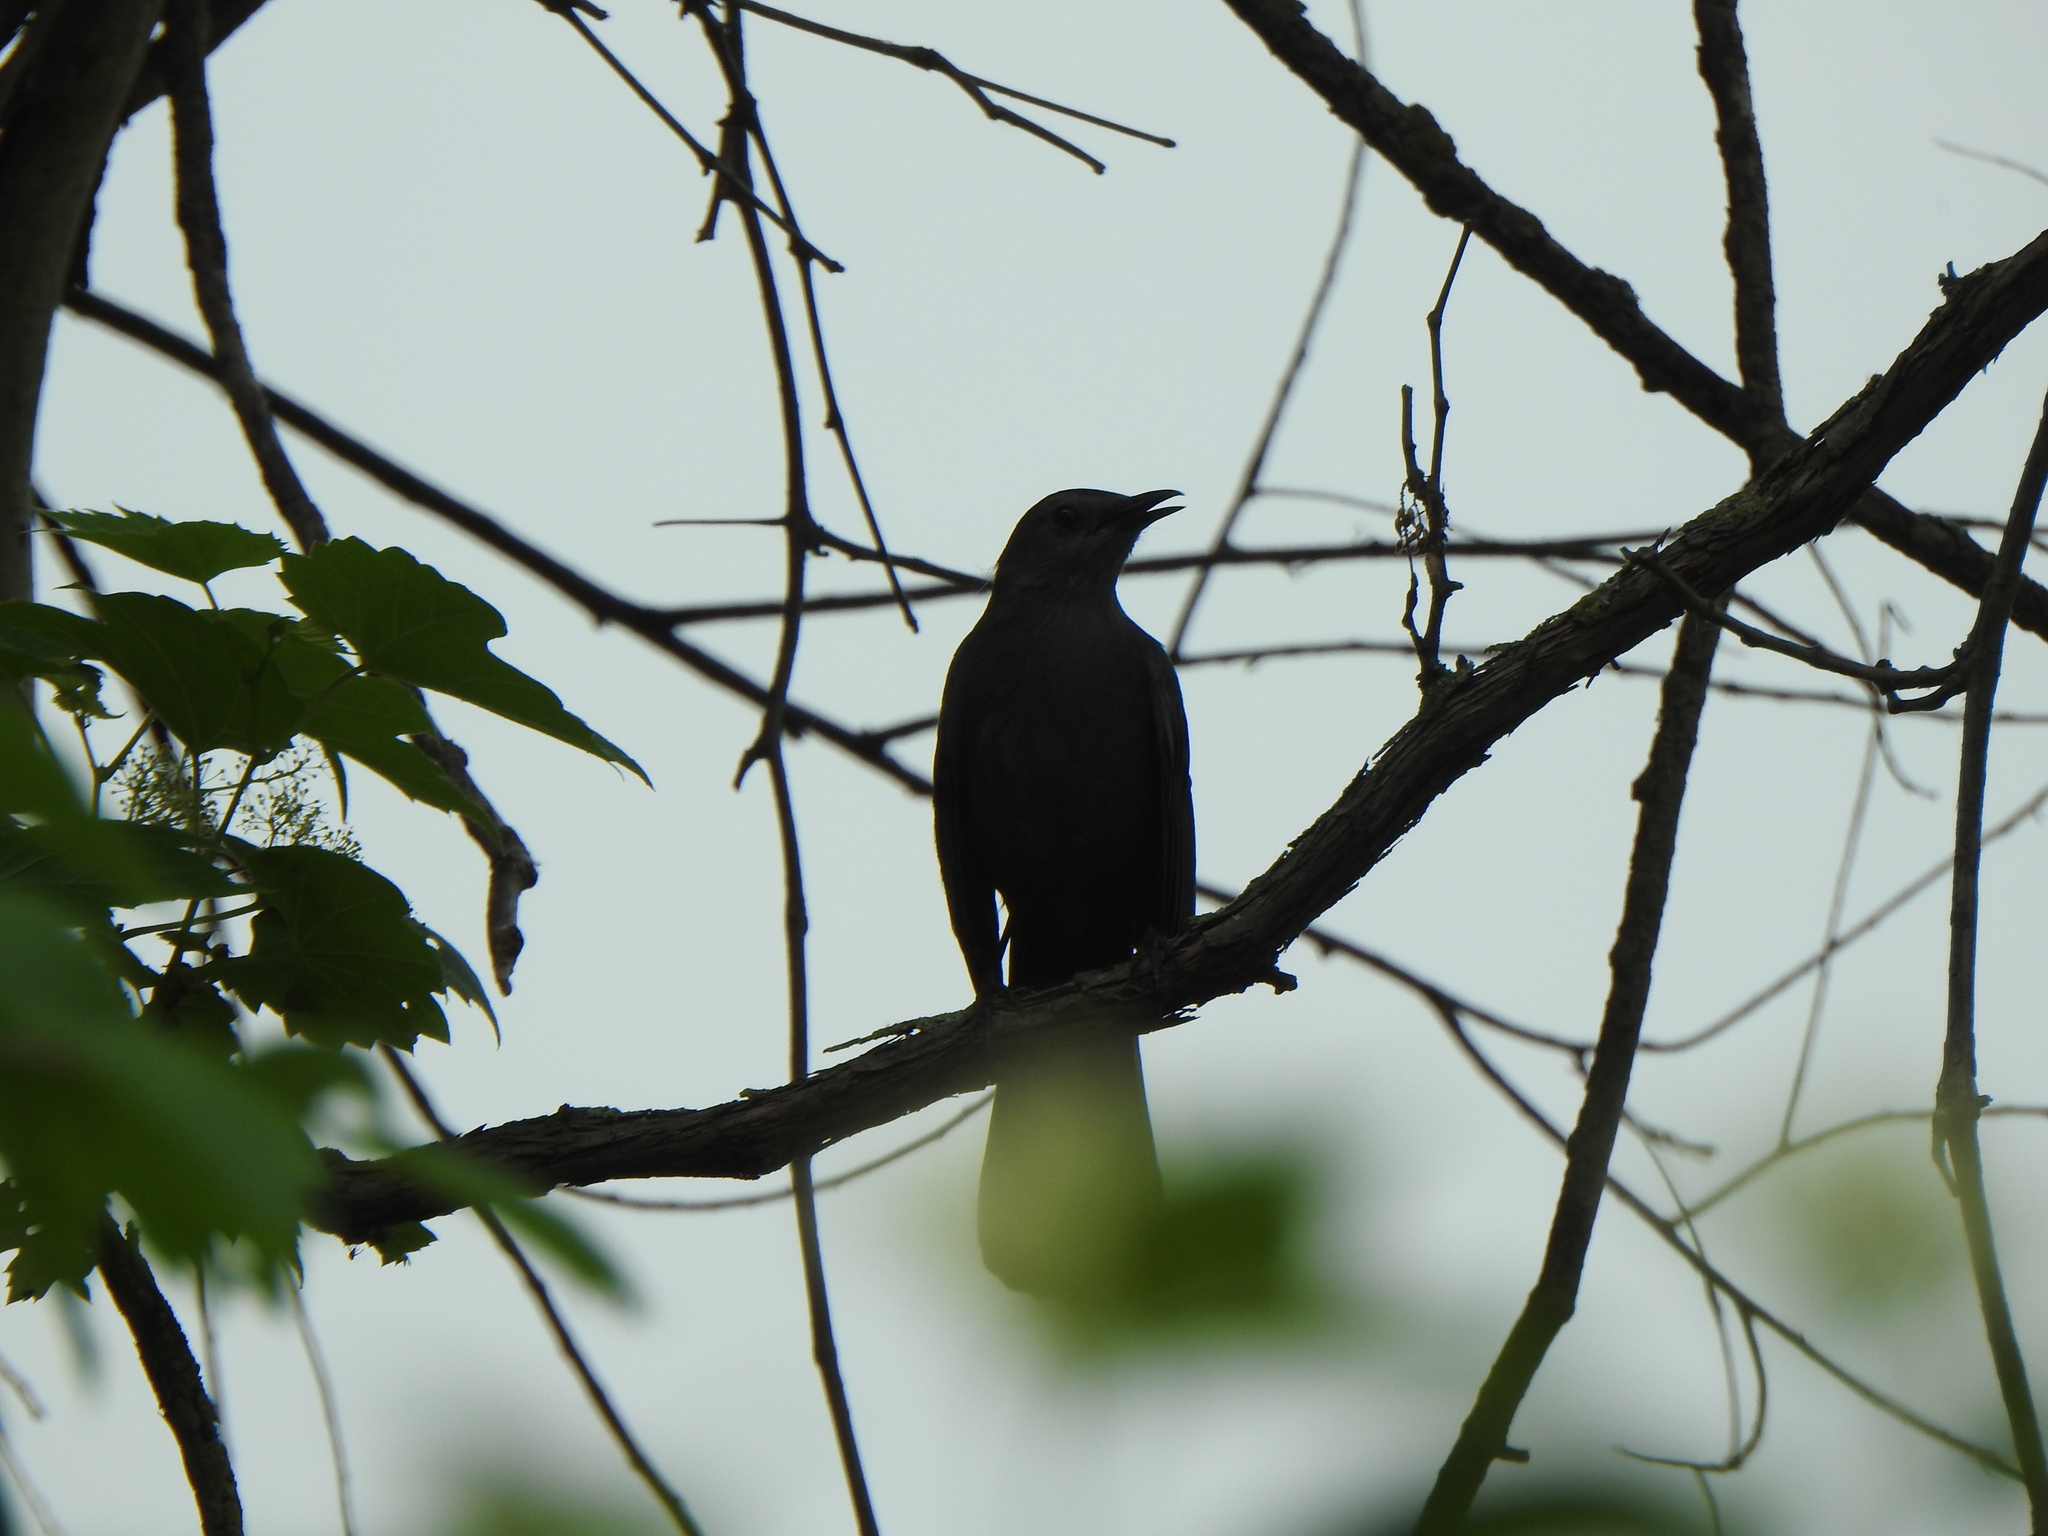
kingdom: Animalia
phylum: Chordata
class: Aves
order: Passeriformes
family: Mimidae
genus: Dumetella
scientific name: Dumetella carolinensis
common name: Gray catbird
